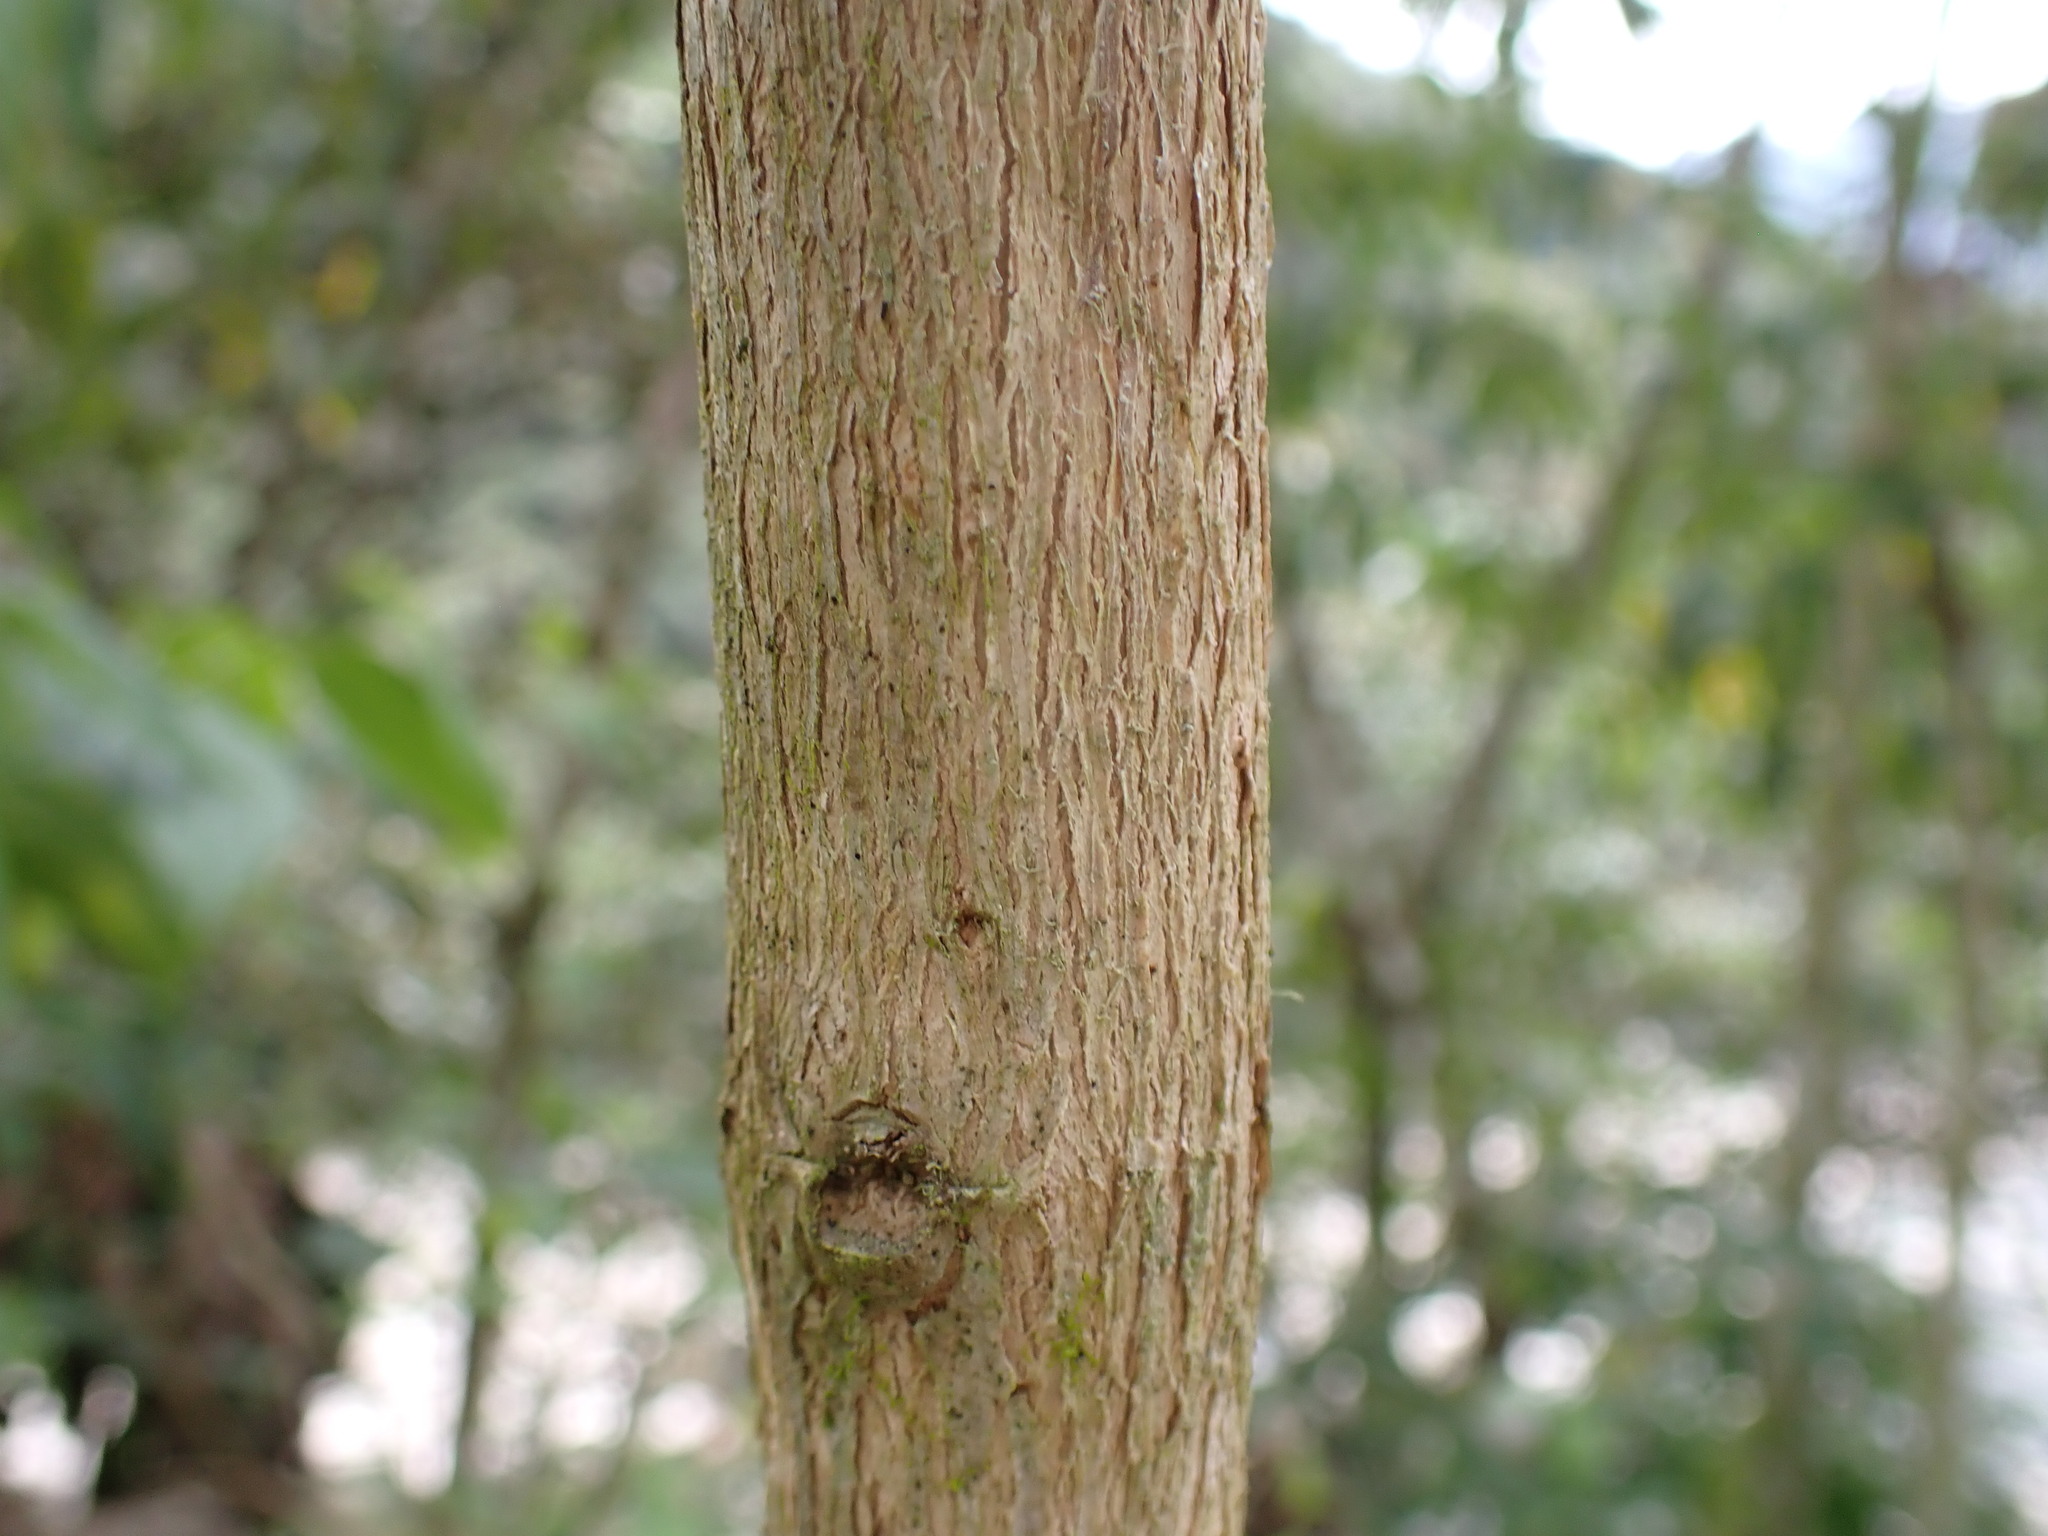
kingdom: Plantae
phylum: Tracheophyta
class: Magnoliopsida
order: Lamiales
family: Lamiaceae
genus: Condea
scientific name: Condea tafallae
